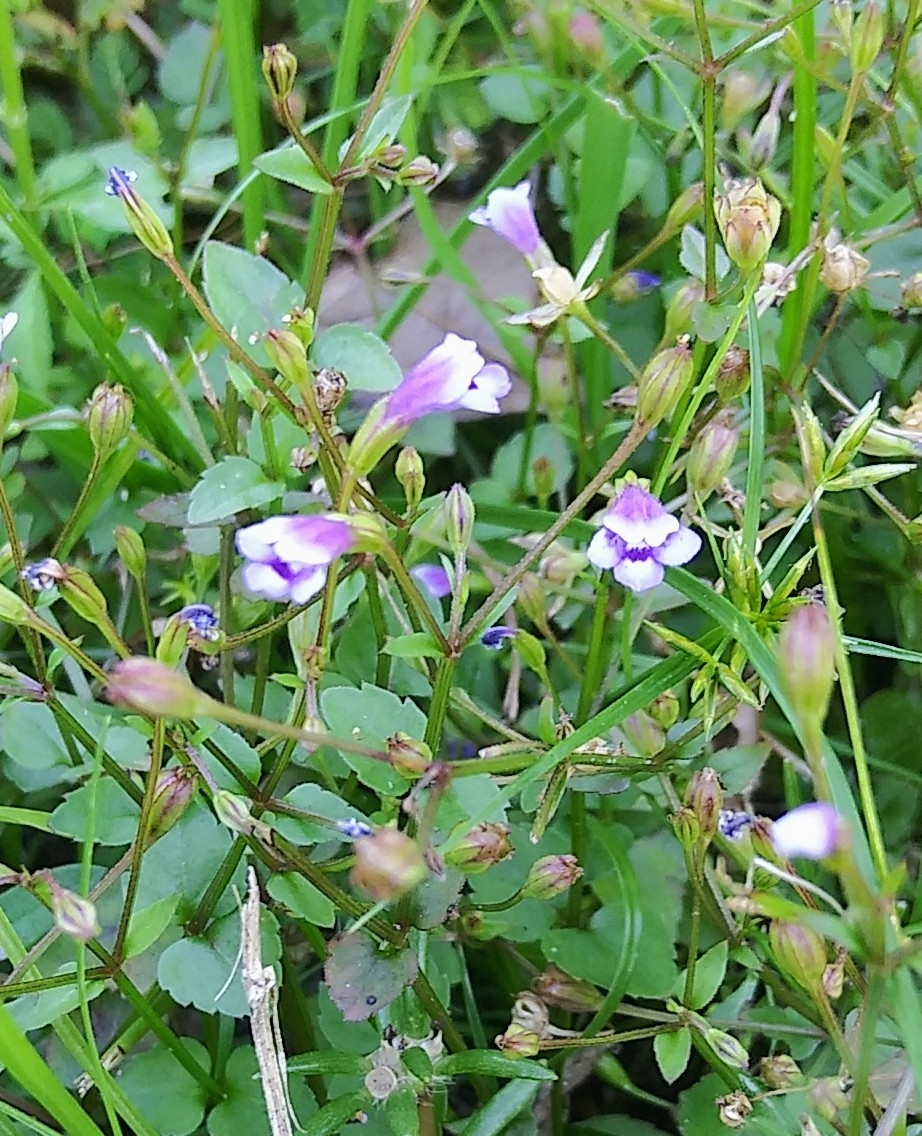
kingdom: Plantae
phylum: Tracheophyta
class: Magnoliopsida
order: Lamiales
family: Linderniaceae
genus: Torenia
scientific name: Torenia crustacea
